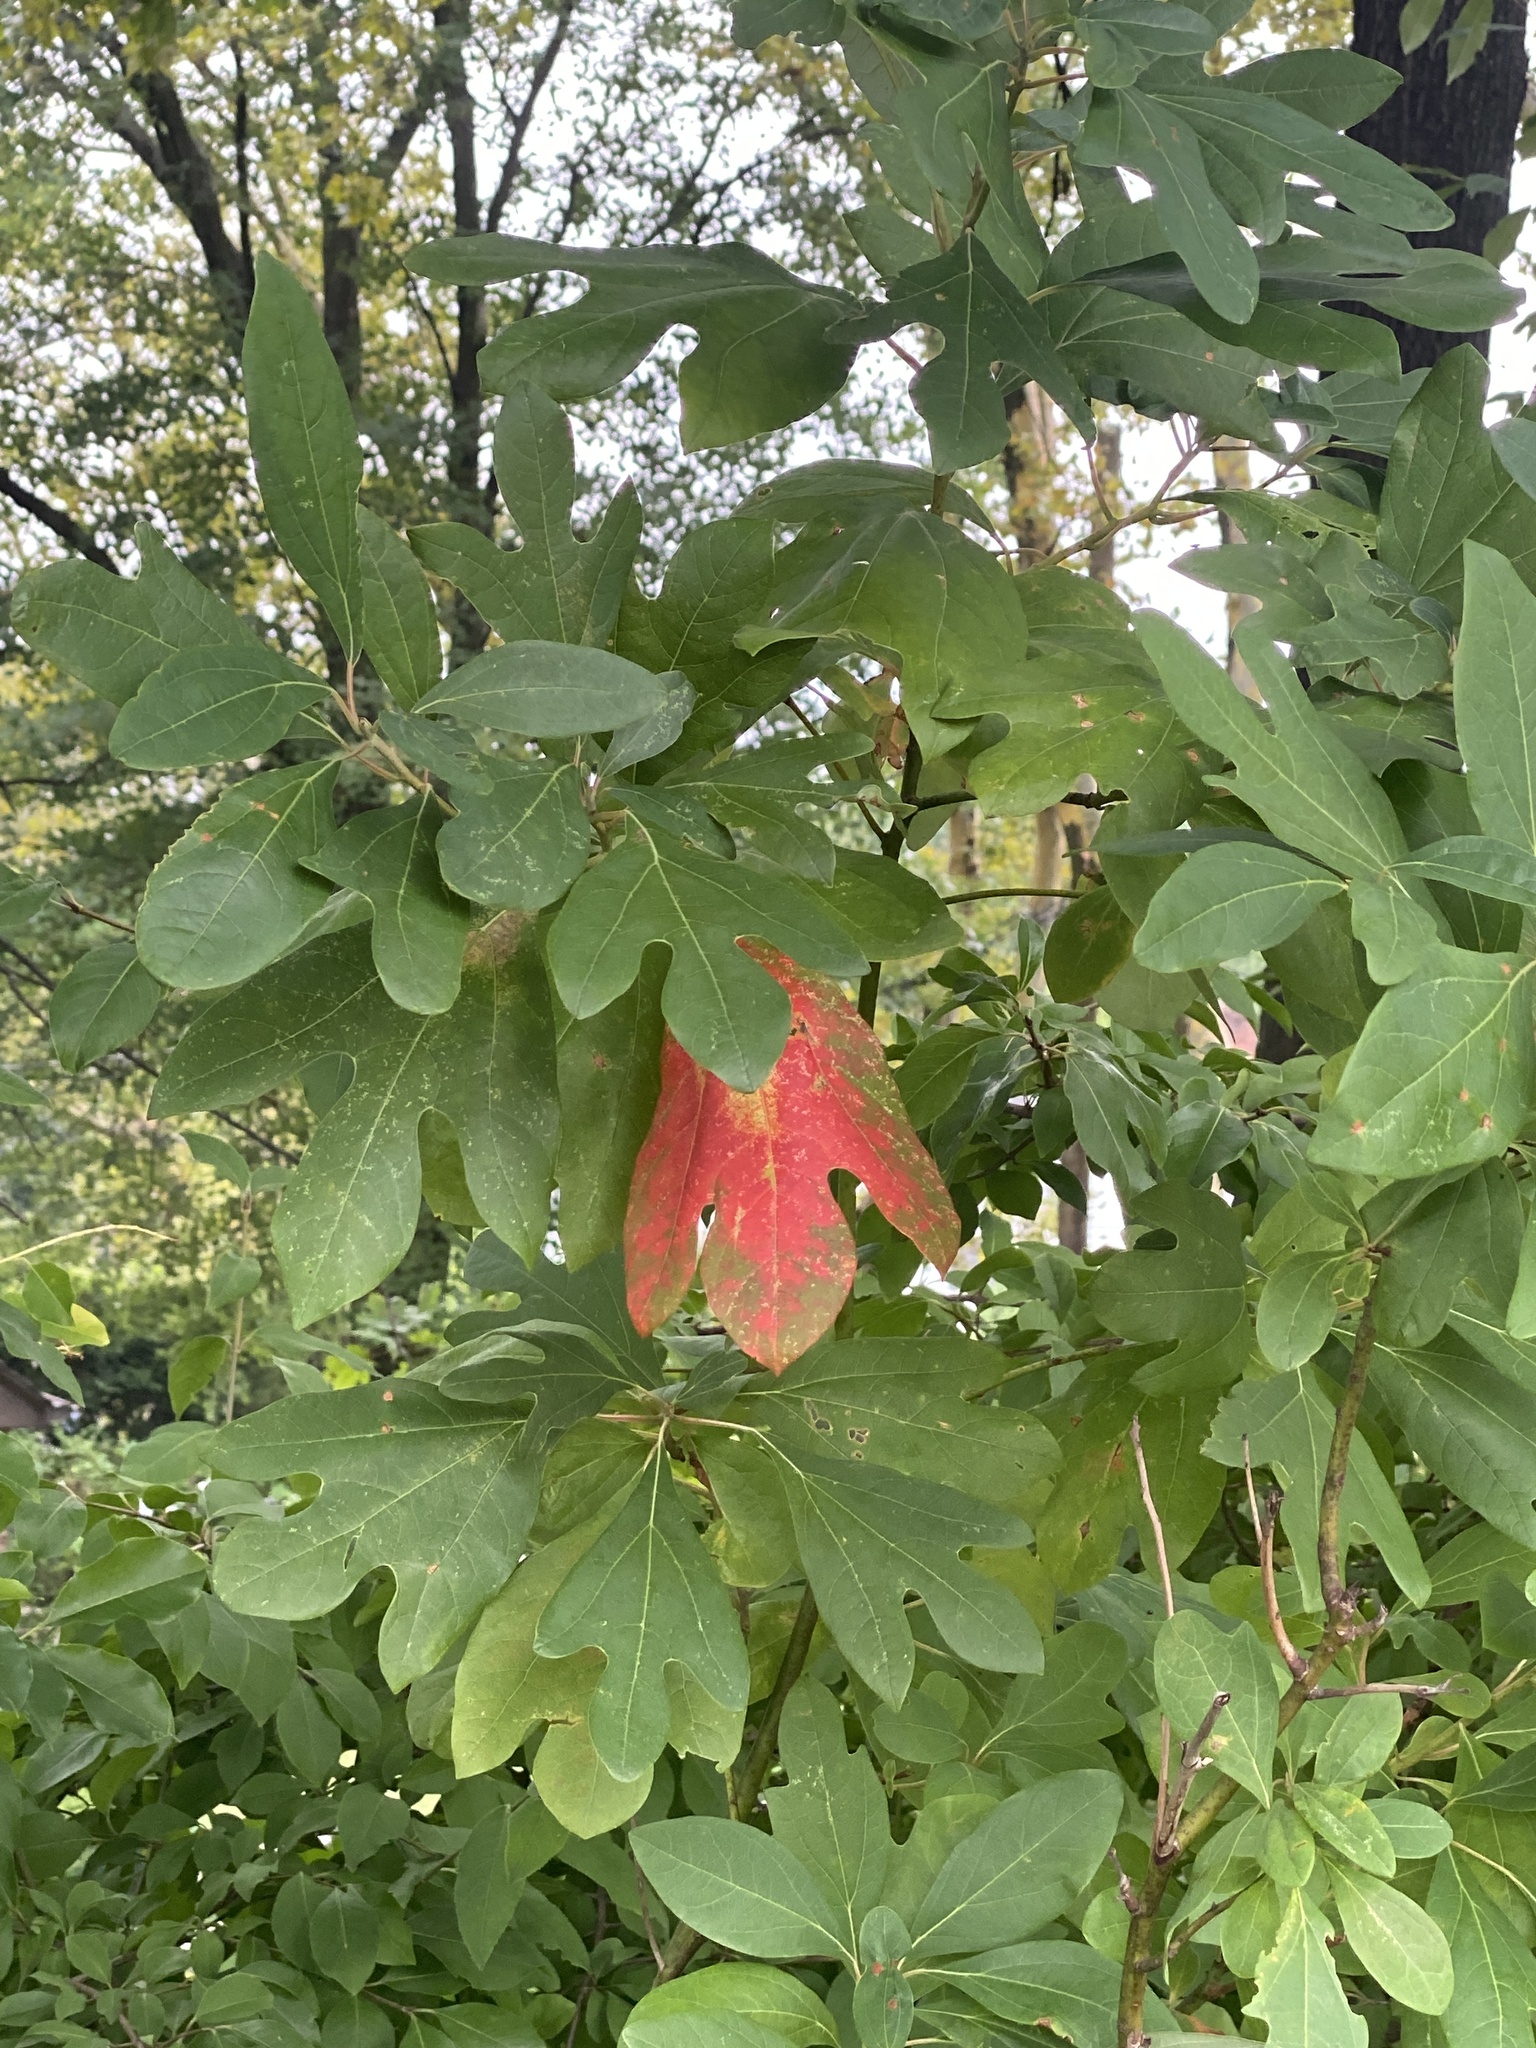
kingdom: Plantae
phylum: Tracheophyta
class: Magnoliopsida
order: Laurales
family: Lauraceae
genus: Sassafras
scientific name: Sassafras albidum
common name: Sassafras
